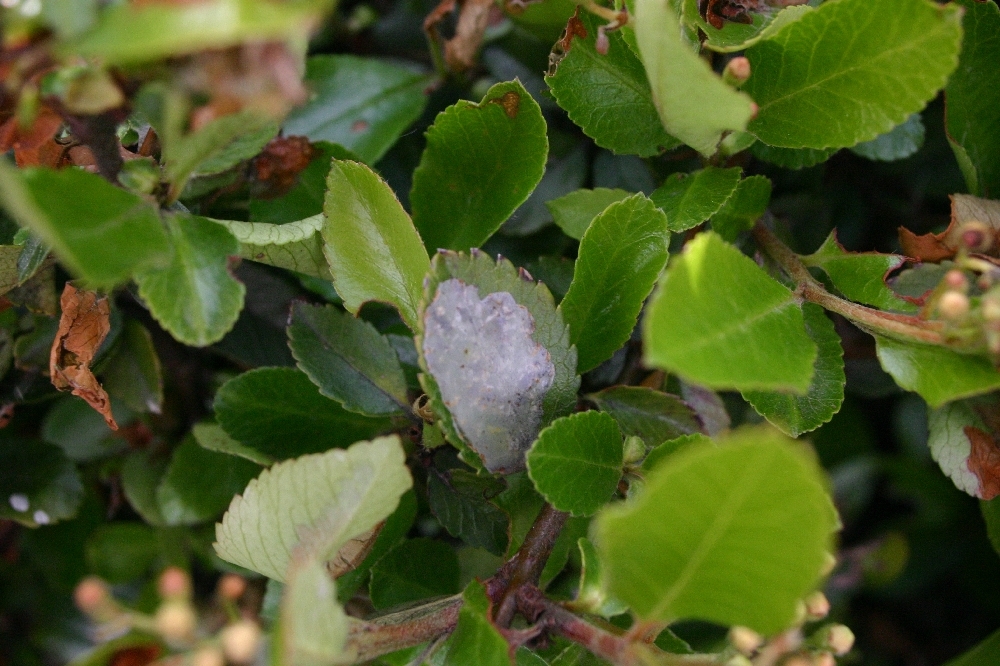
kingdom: Animalia
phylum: Arthropoda
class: Insecta
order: Lepidoptera
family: Gracillariidae
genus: Phyllonorycter
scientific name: Phyllonorycter leucographella
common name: Firethorn leaf-miner
